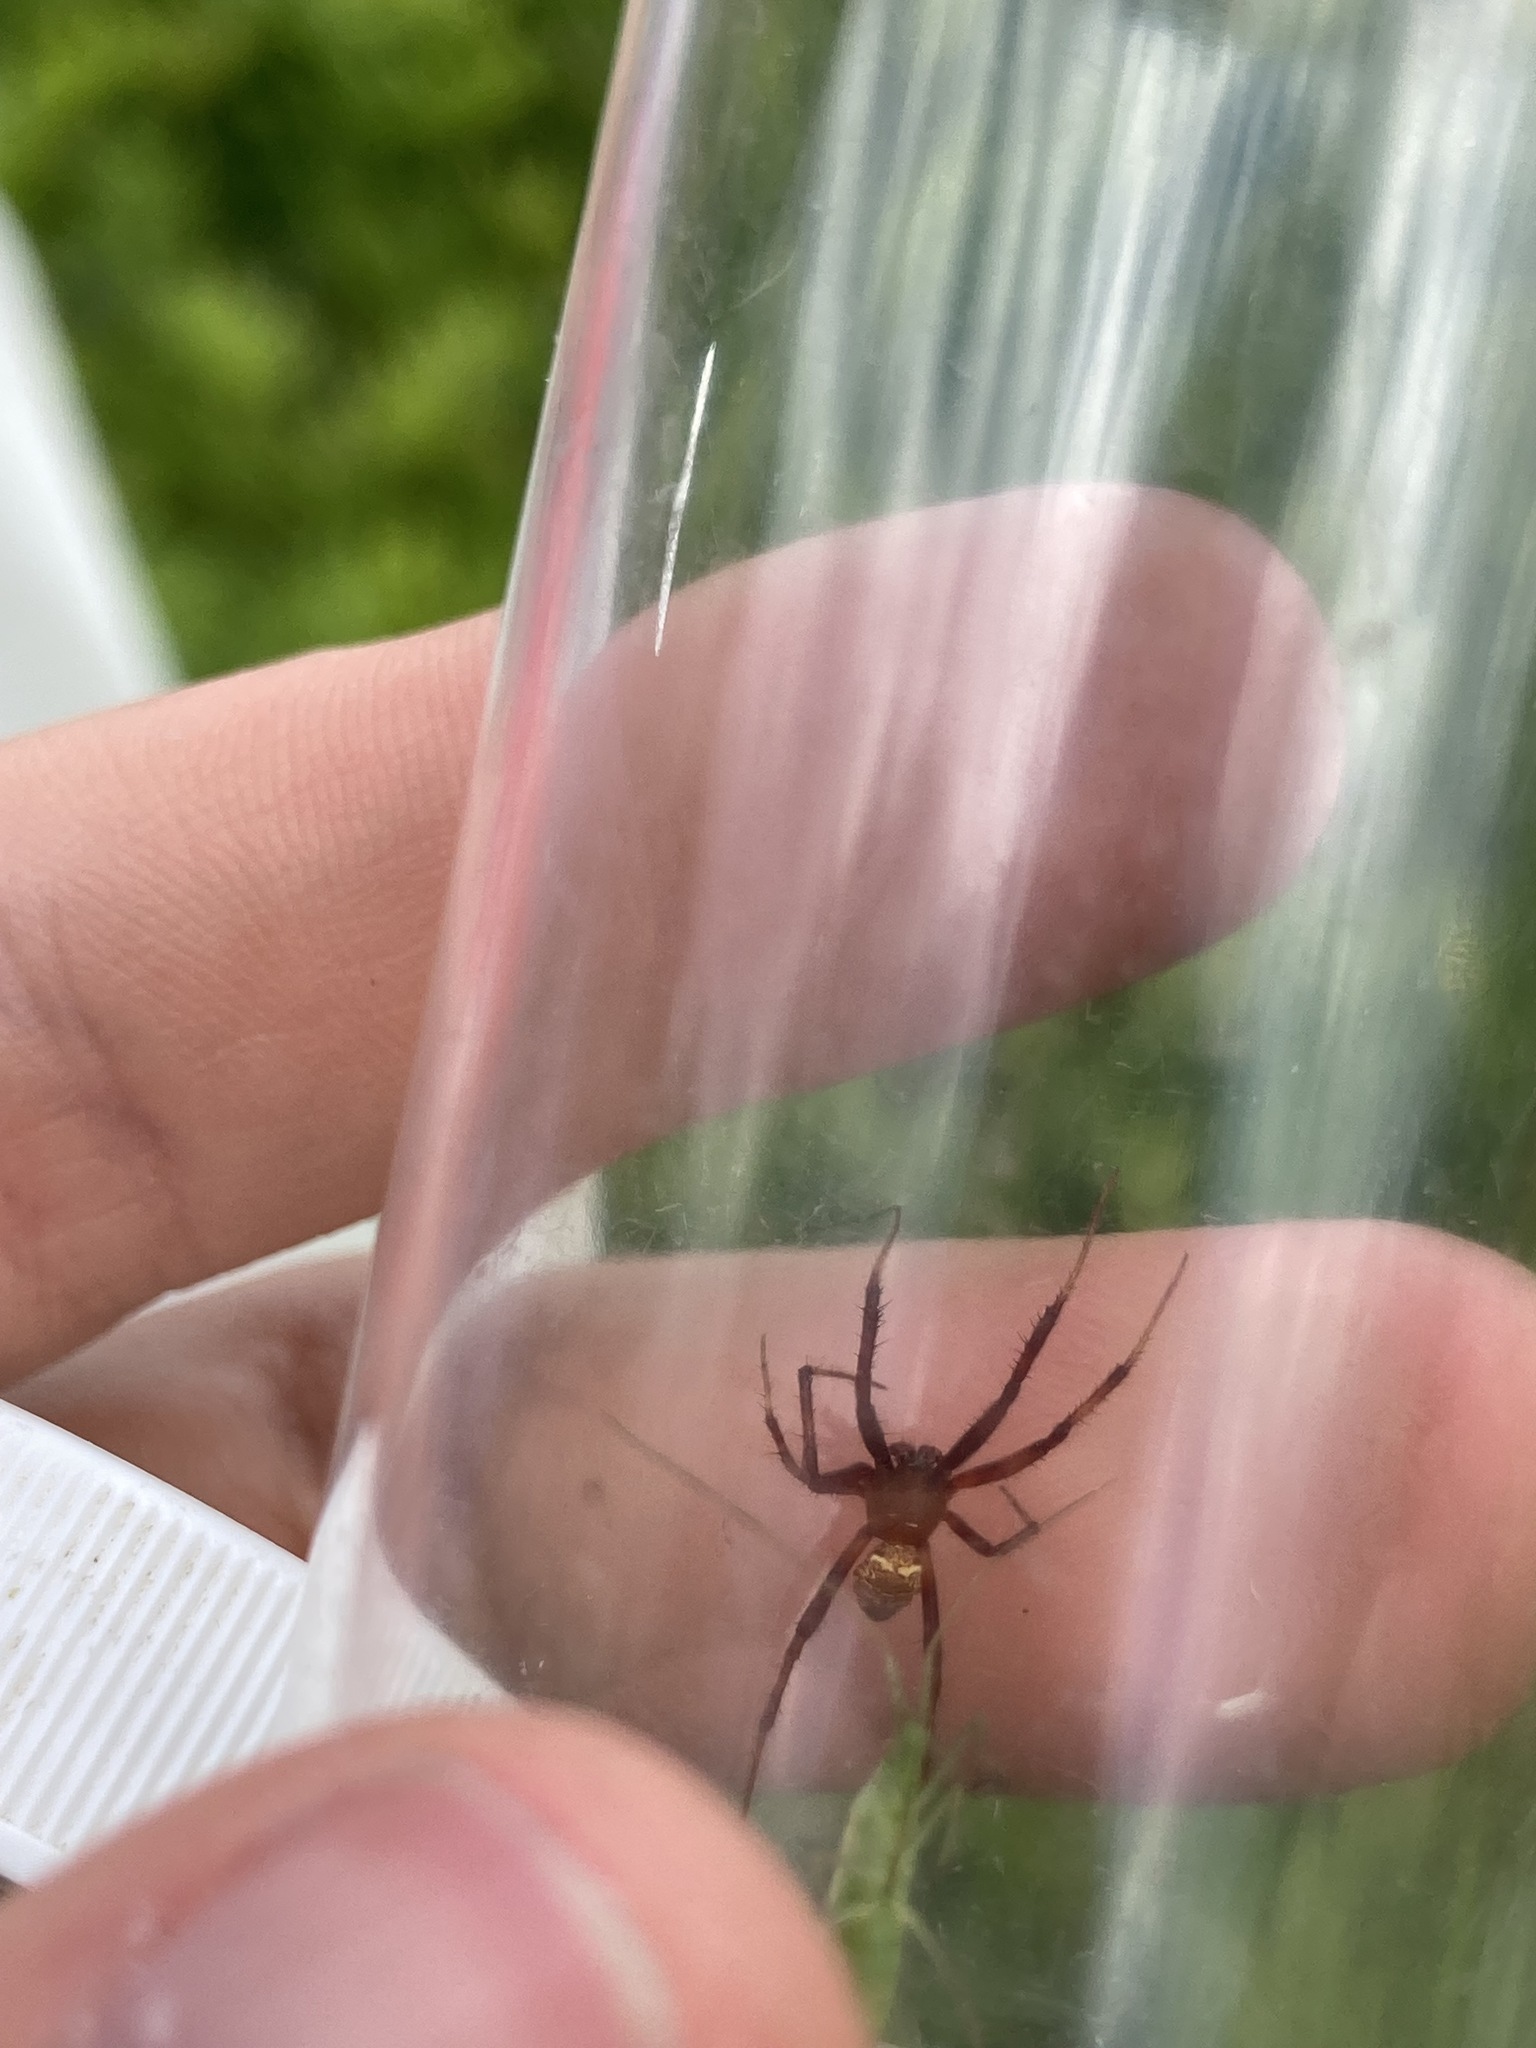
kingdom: Animalia
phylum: Arthropoda
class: Arachnida
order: Araneae
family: Araneidae
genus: Gea
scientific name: Gea heptagon
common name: Orb weavers
